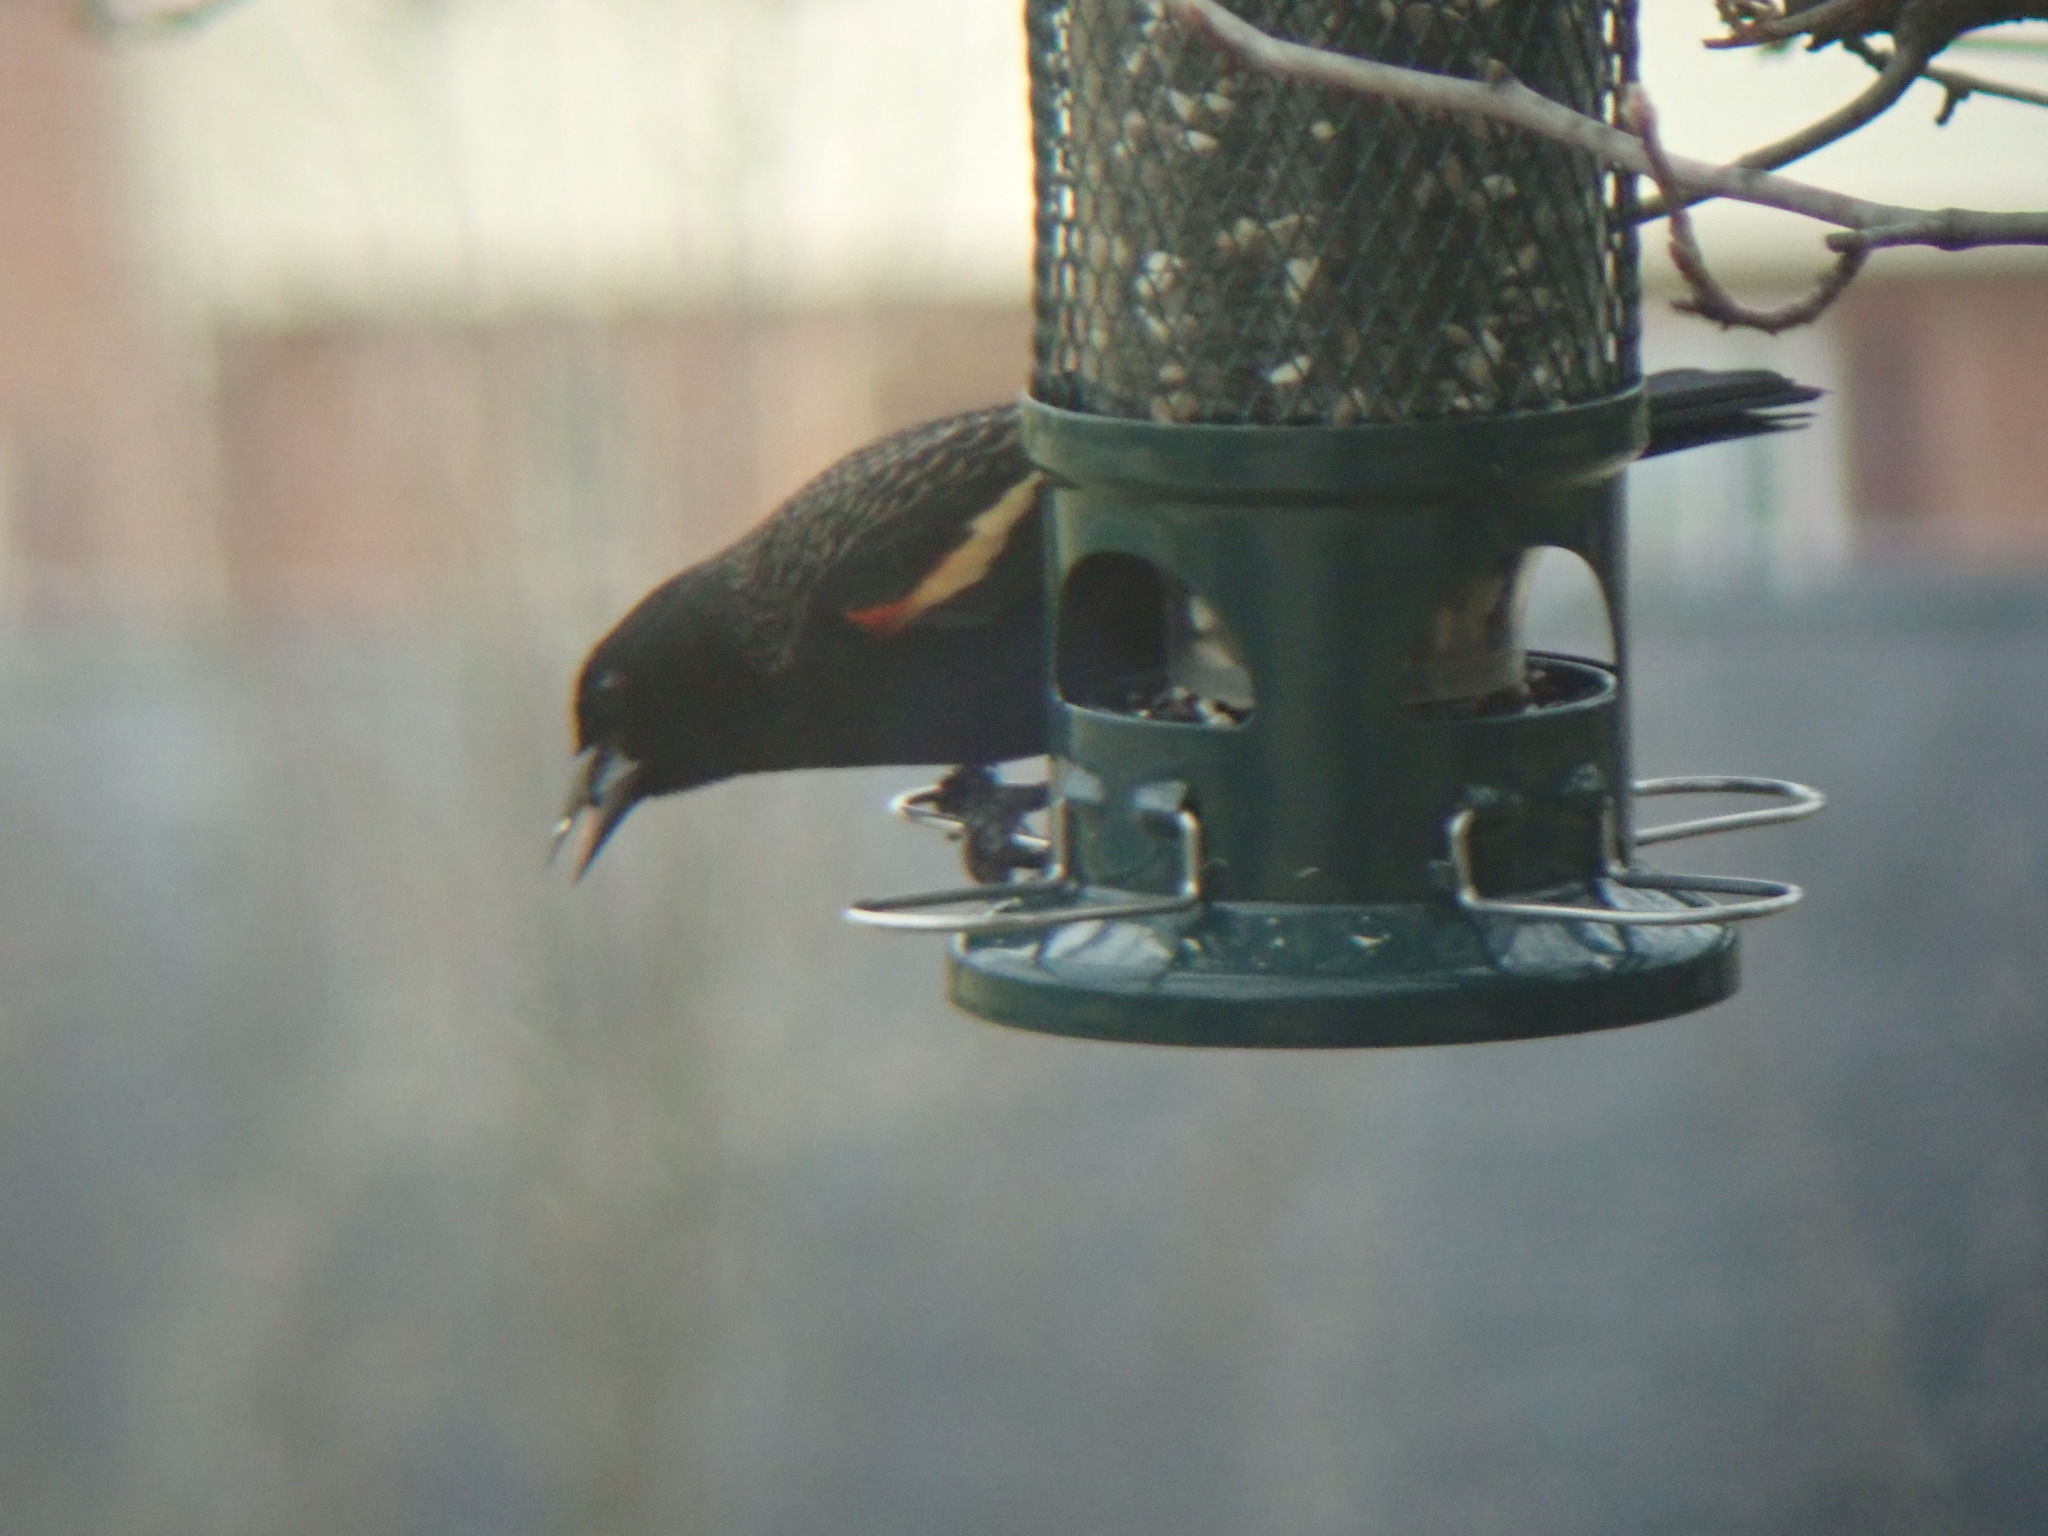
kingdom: Animalia
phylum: Chordata
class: Aves
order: Passeriformes
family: Icteridae
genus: Agelaius
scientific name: Agelaius phoeniceus
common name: Red-winged blackbird
